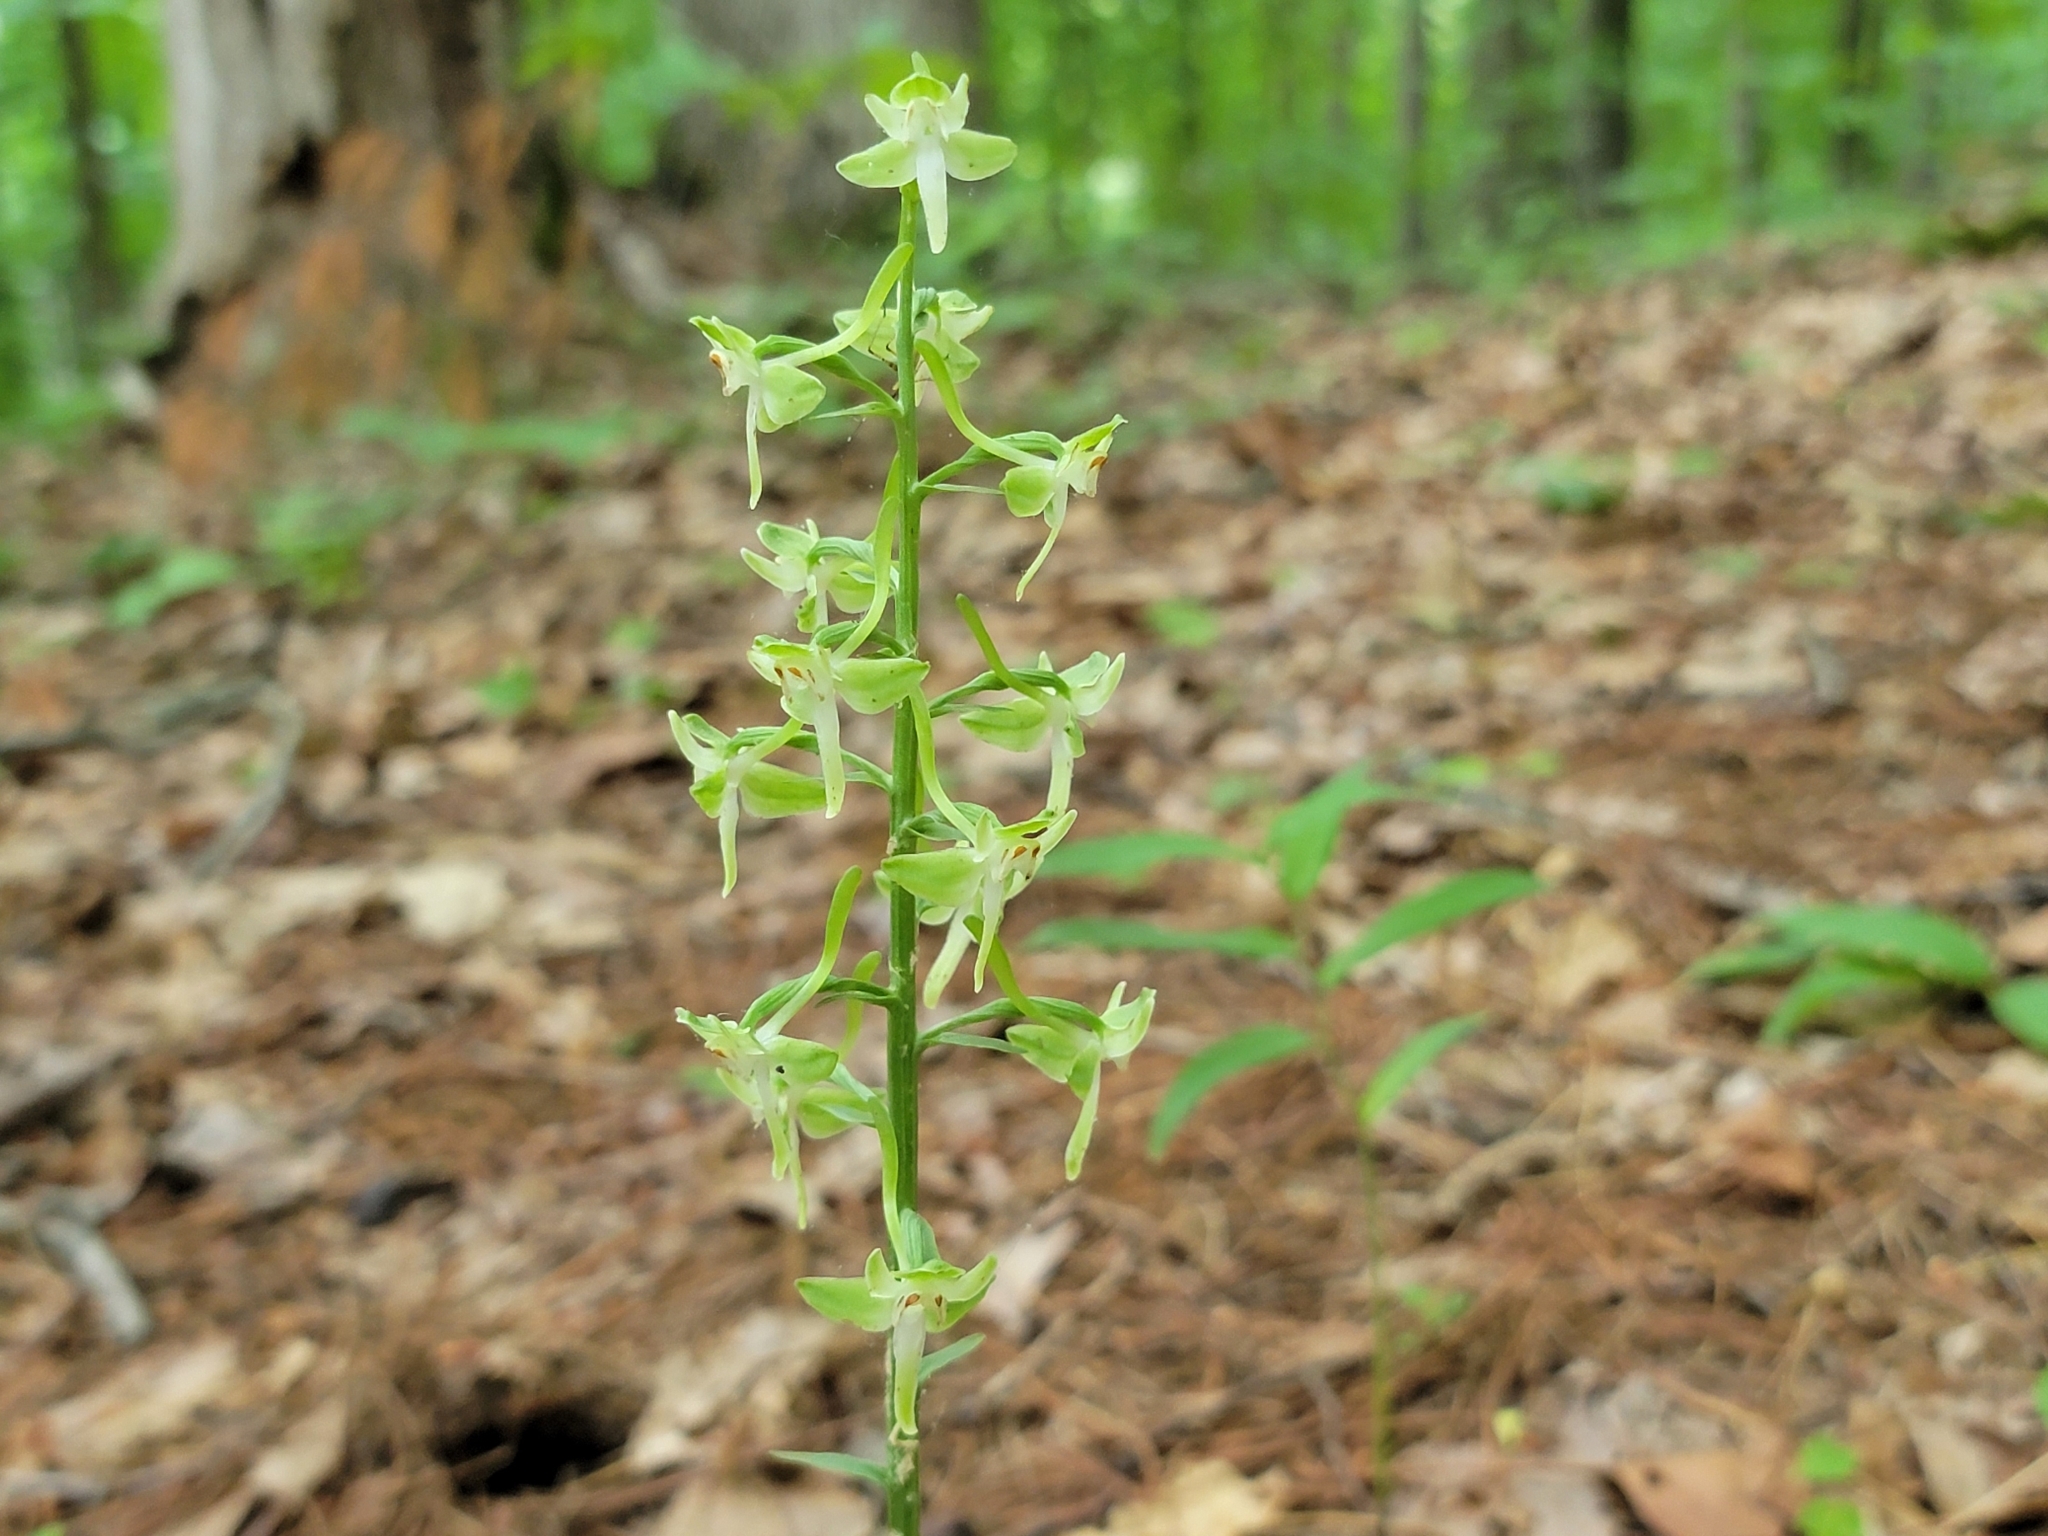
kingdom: Plantae
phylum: Tracheophyta
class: Liliopsida
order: Asparagales
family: Orchidaceae
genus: Platanthera
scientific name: Platanthera orbiculata
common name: Large round-leaved orchid
